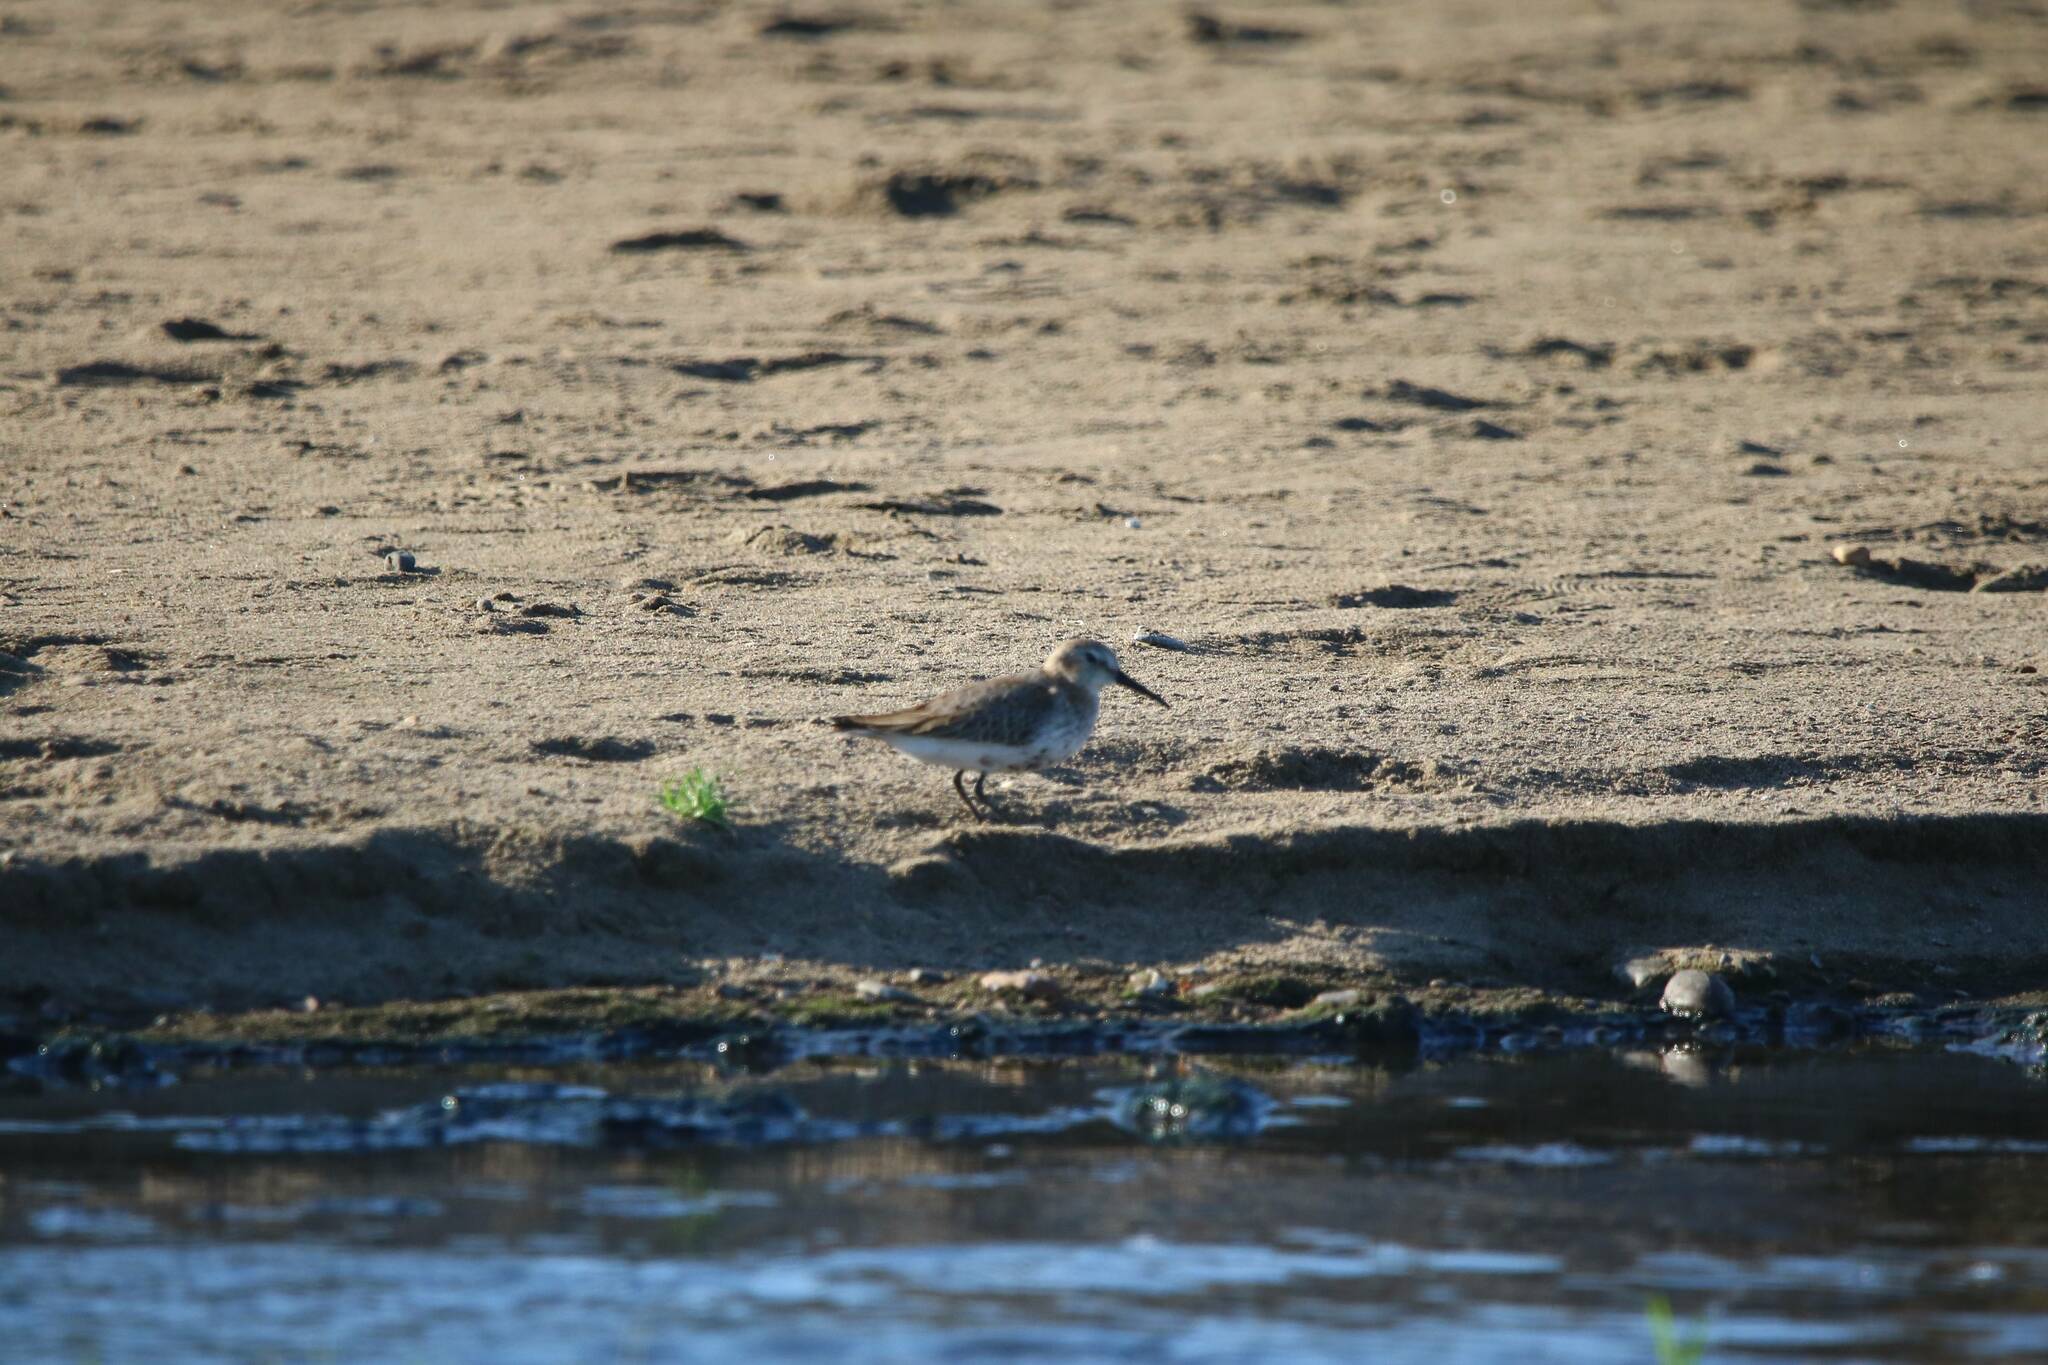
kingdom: Animalia
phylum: Chordata
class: Aves
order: Charadriiformes
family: Scolopacidae
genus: Calidris
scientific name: Calidris alpina
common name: Dunlin
